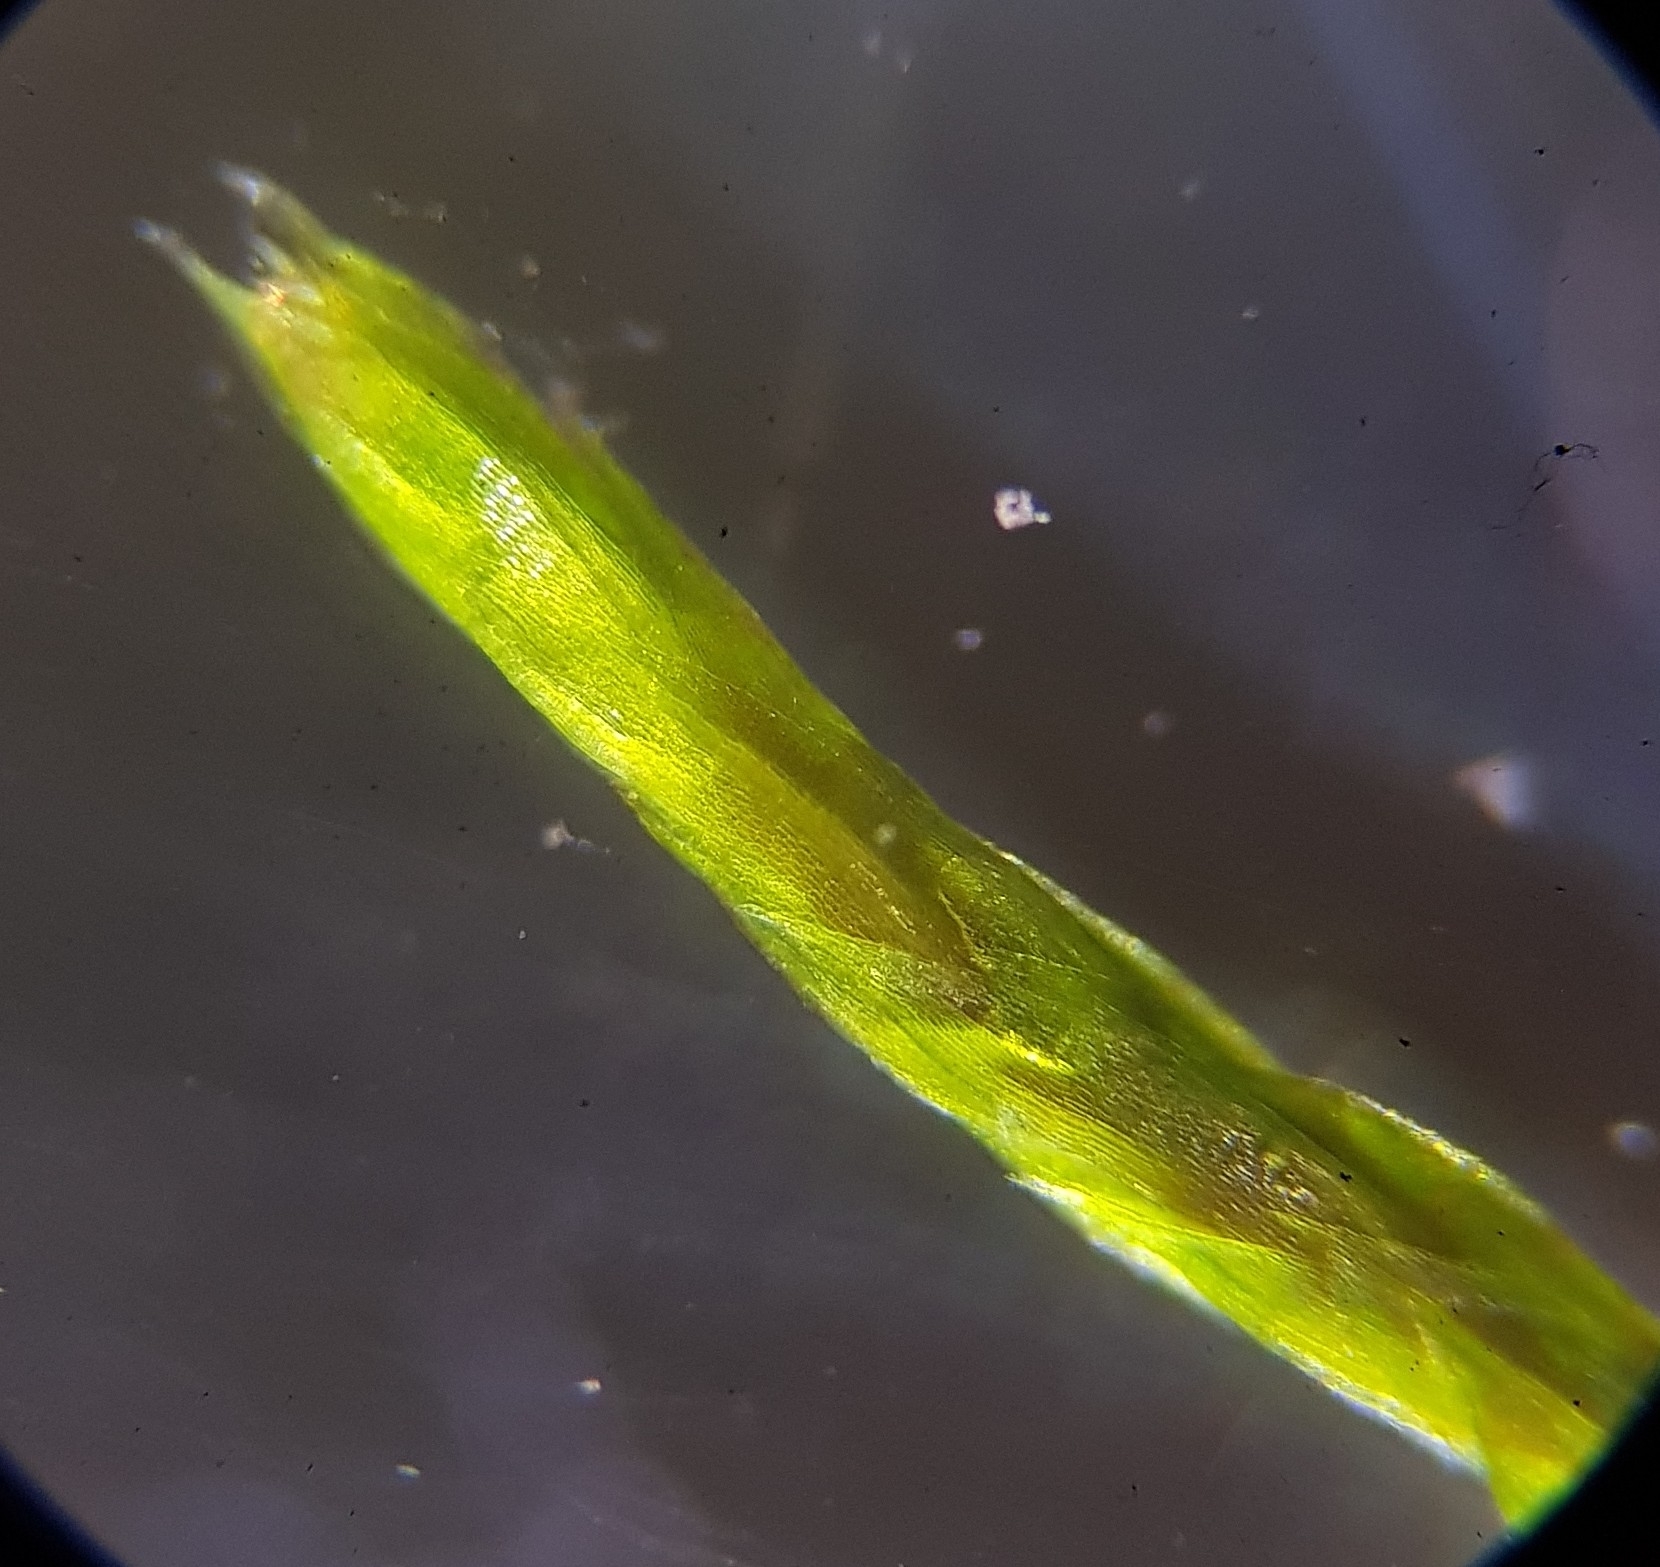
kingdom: Plantae
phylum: Bryophyta
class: Bryopsida
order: Bryales
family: Mniaceae
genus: Pohlia
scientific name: Pohlia nutans
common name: Nodding thread-moss
